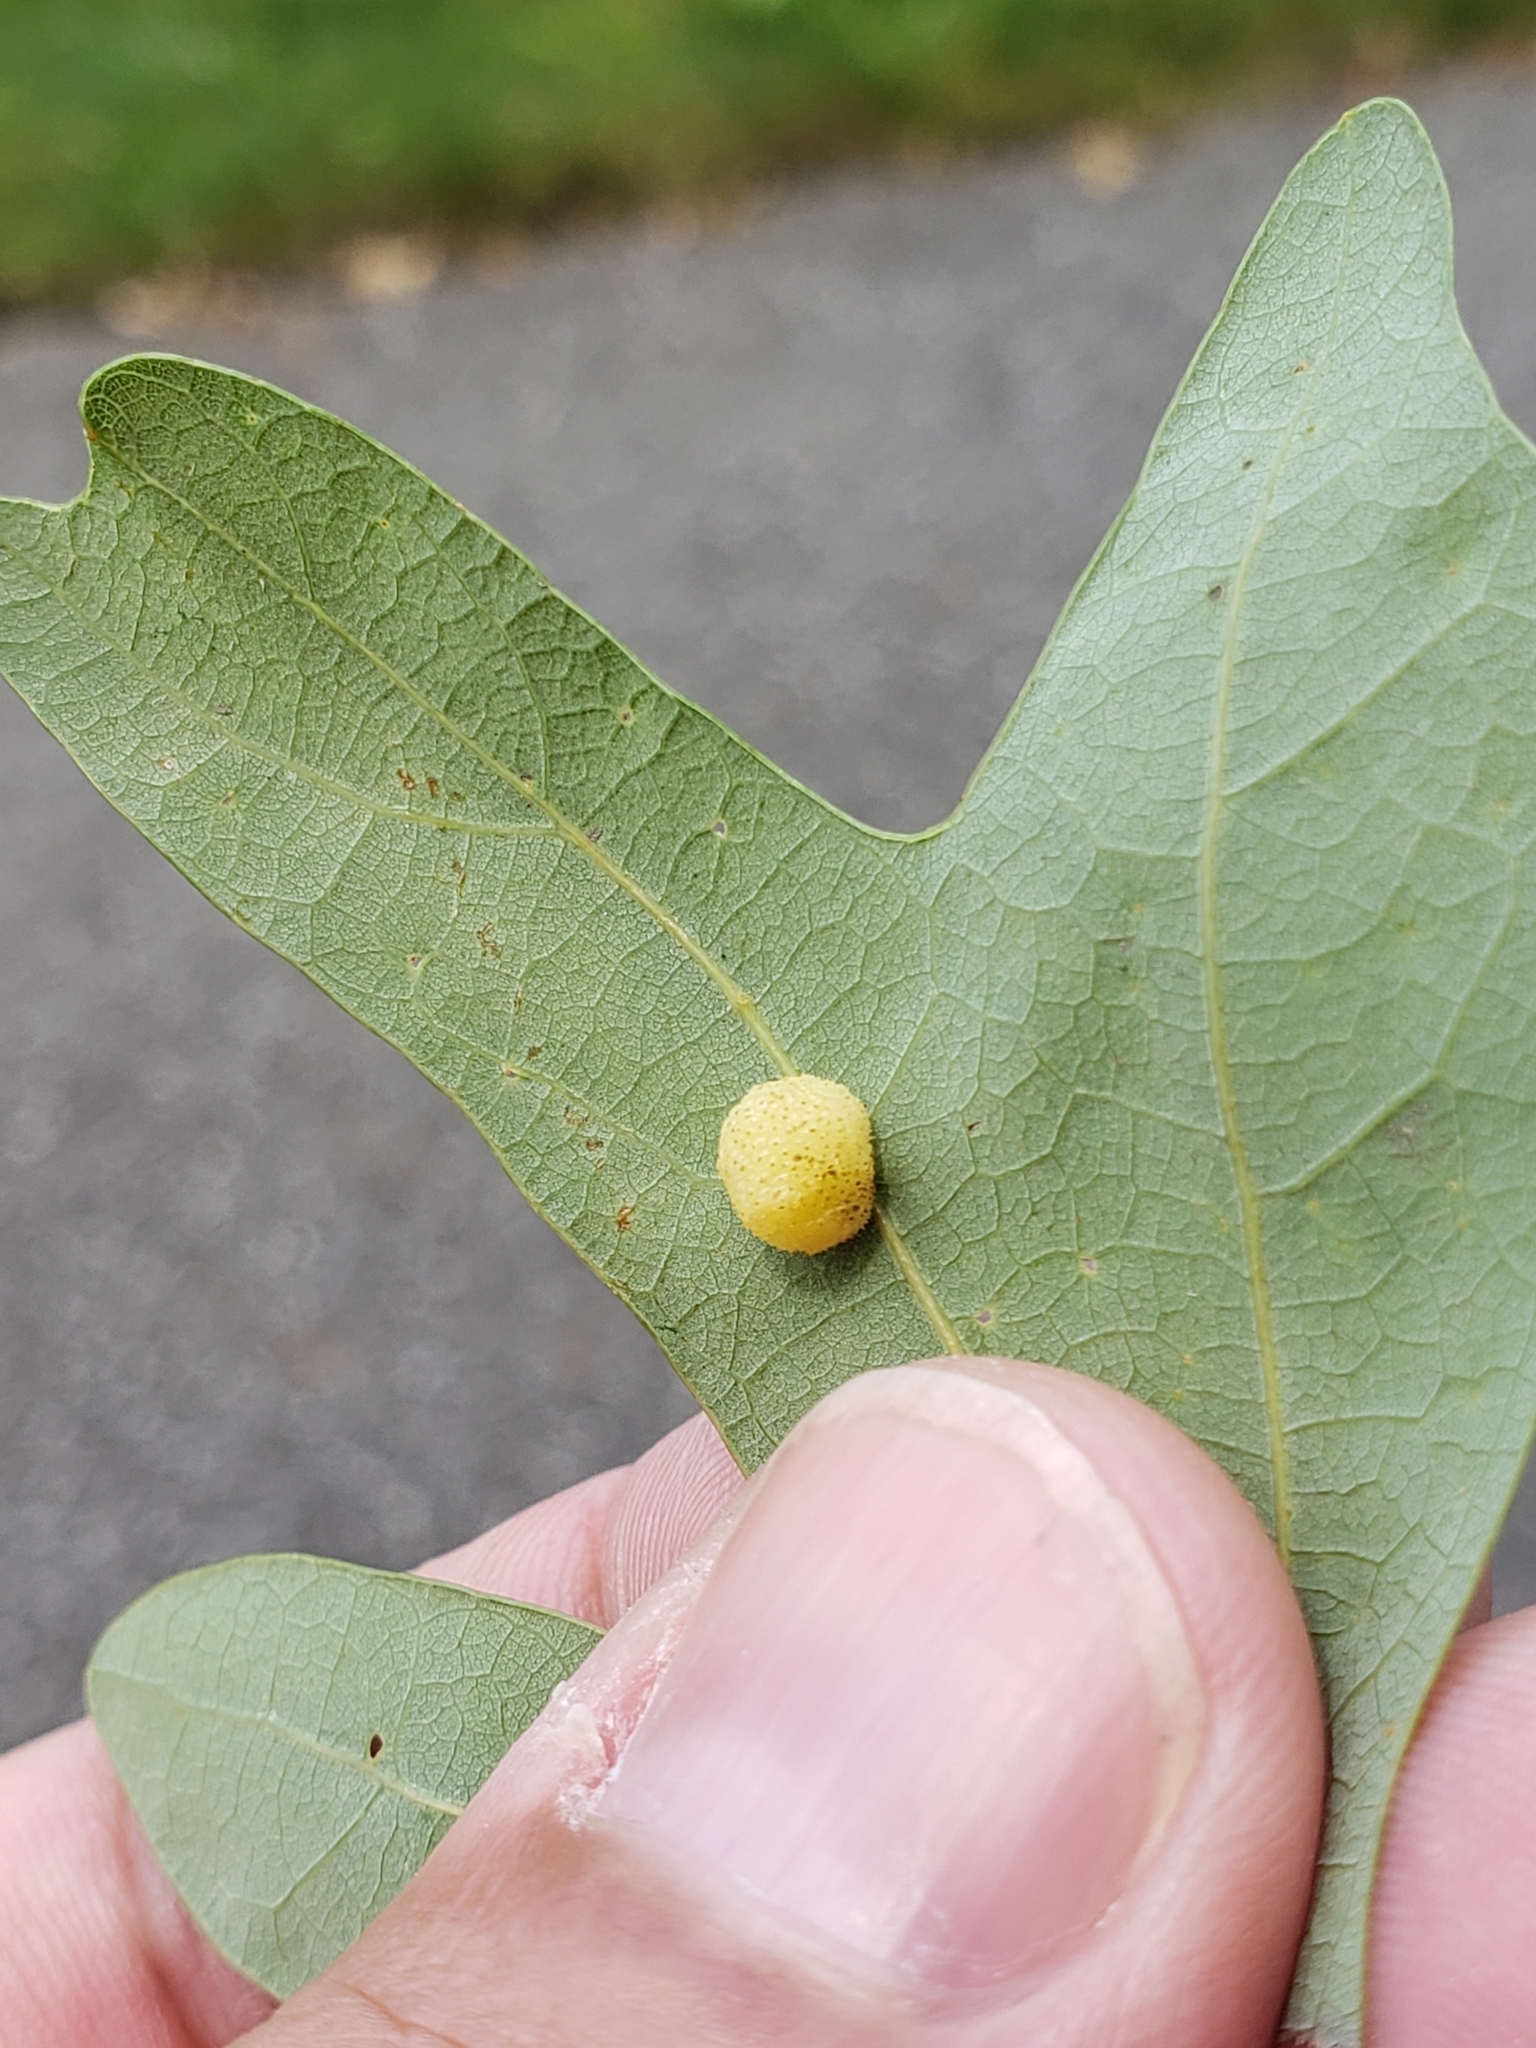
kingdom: Animalia
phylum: Arthropoda
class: Insecta
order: Hymenoptera
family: Cynipidae
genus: Acraspis
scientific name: Acraspis
